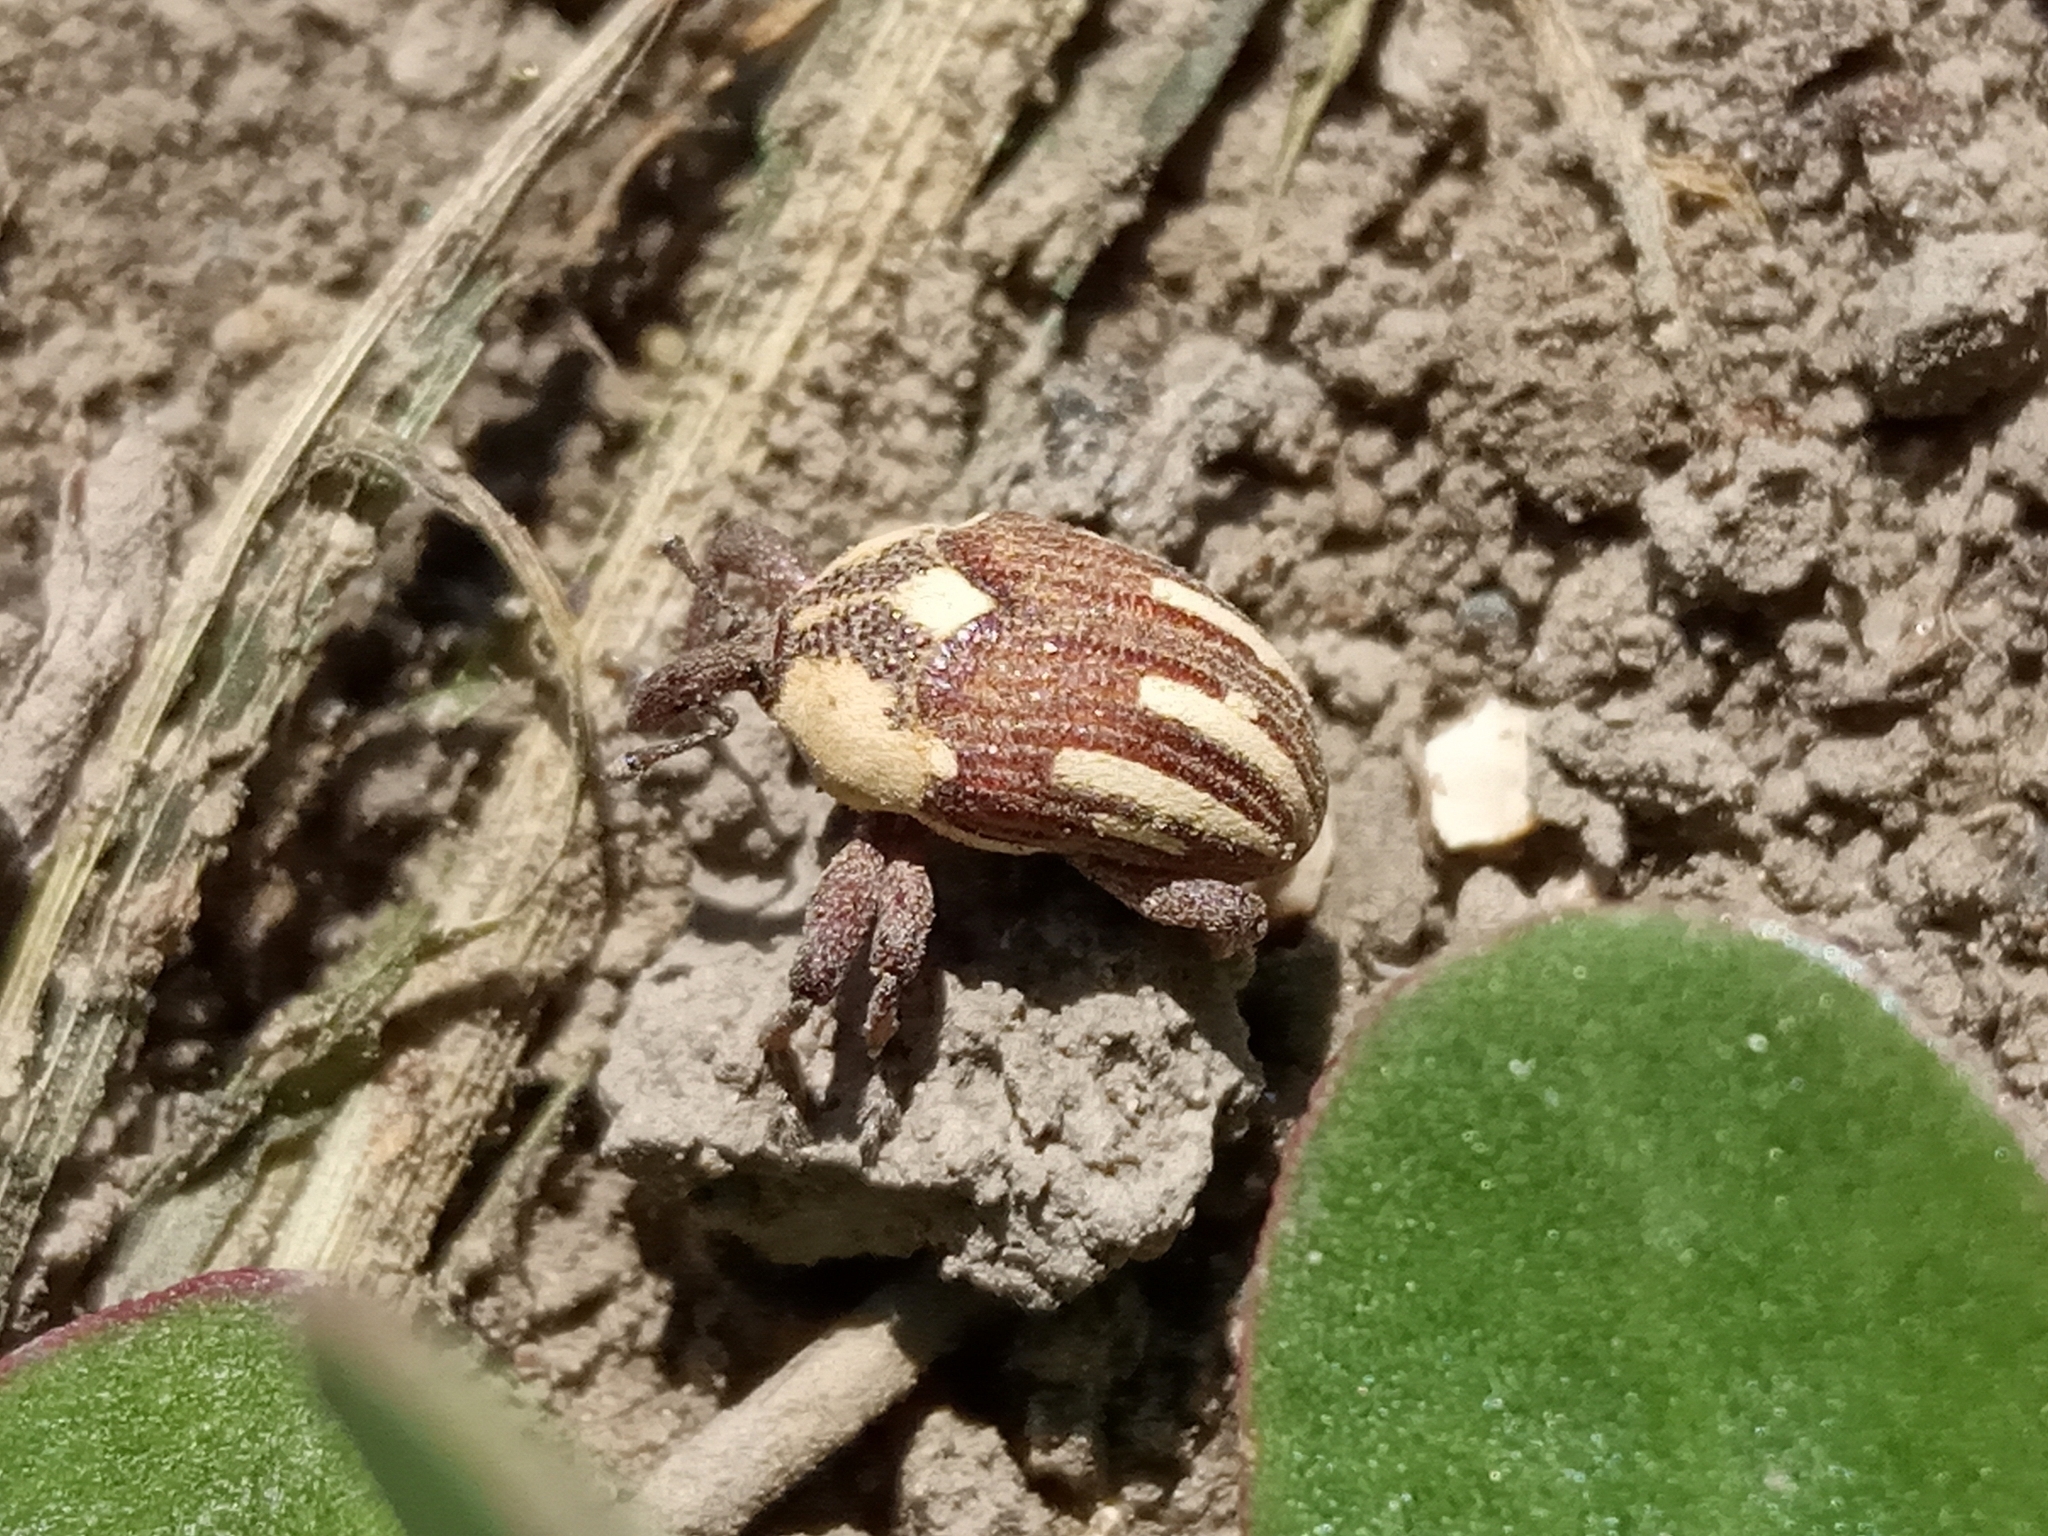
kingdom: Animalia
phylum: Arthropoda
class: Insecta
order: Coleoptera
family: Curculionidae
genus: Sternuchopsis
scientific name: Sternuchopsis
